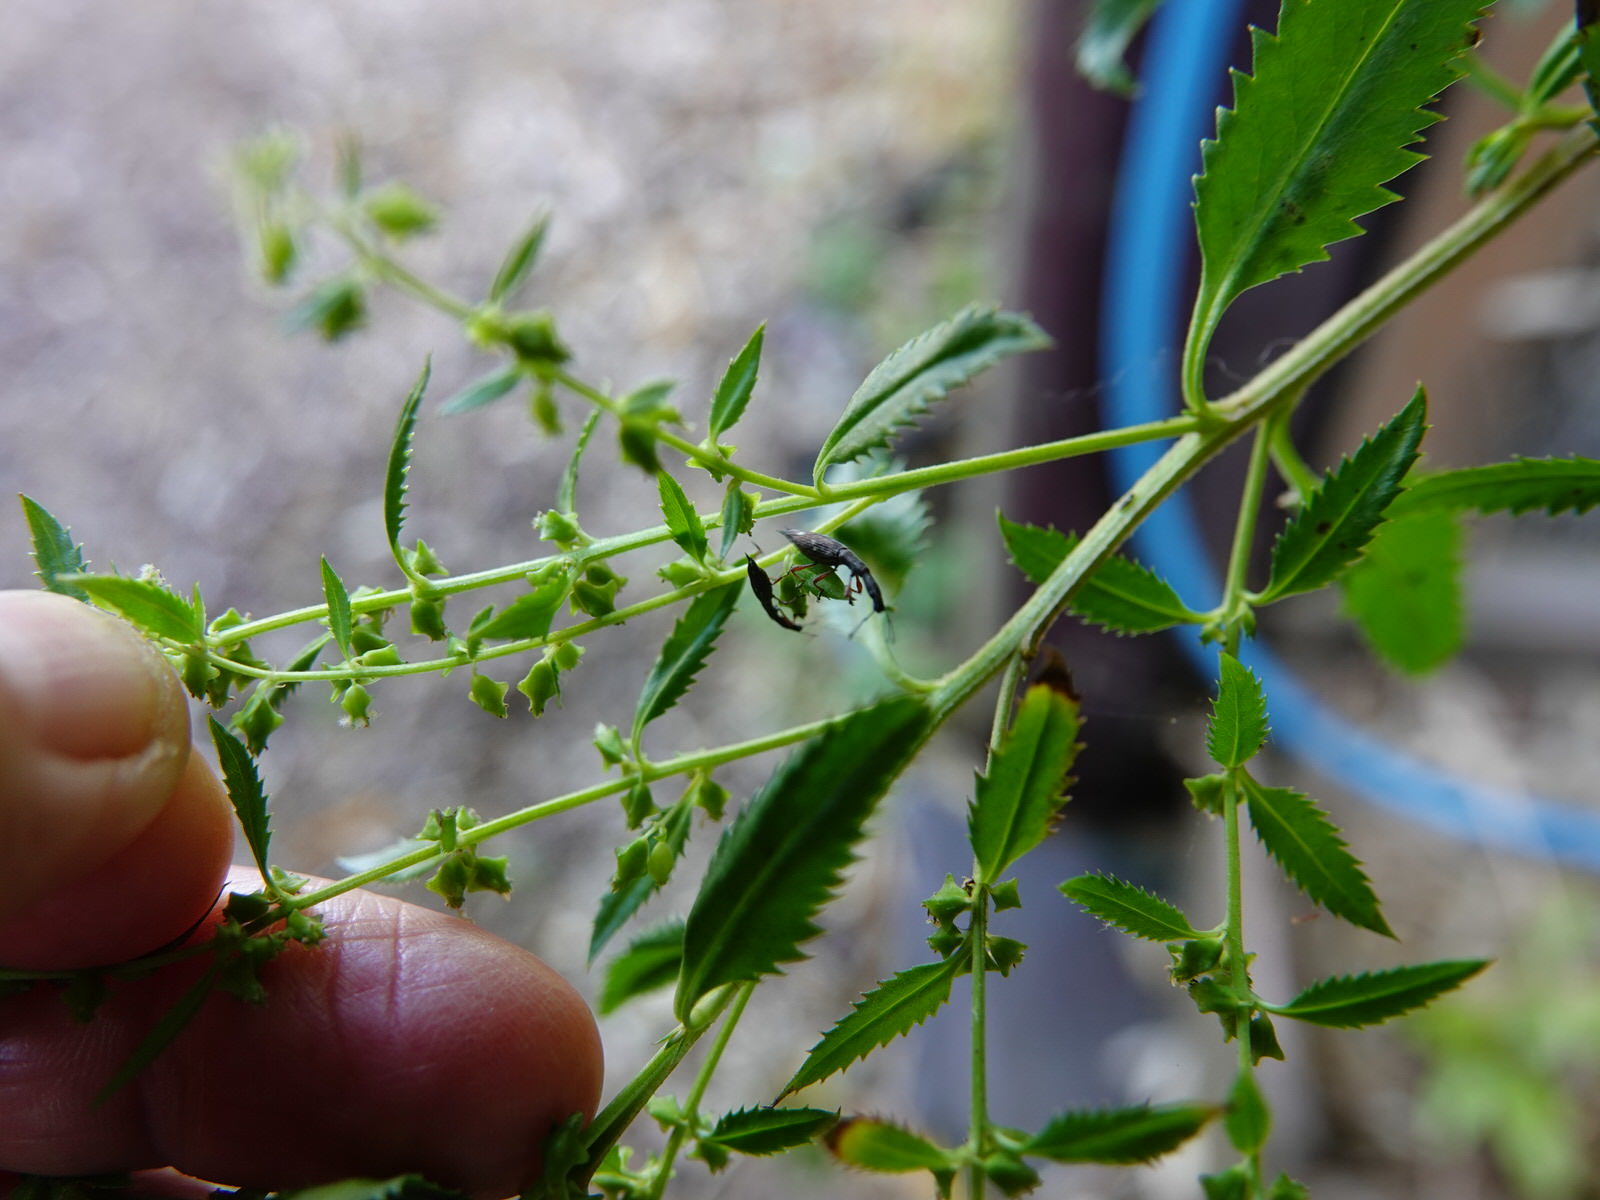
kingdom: Animalia
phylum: Arthropoda
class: Insecta
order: Coleoptera
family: Curculionidae
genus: Rhadinosomus
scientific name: Rhadinosomus acuminatus
